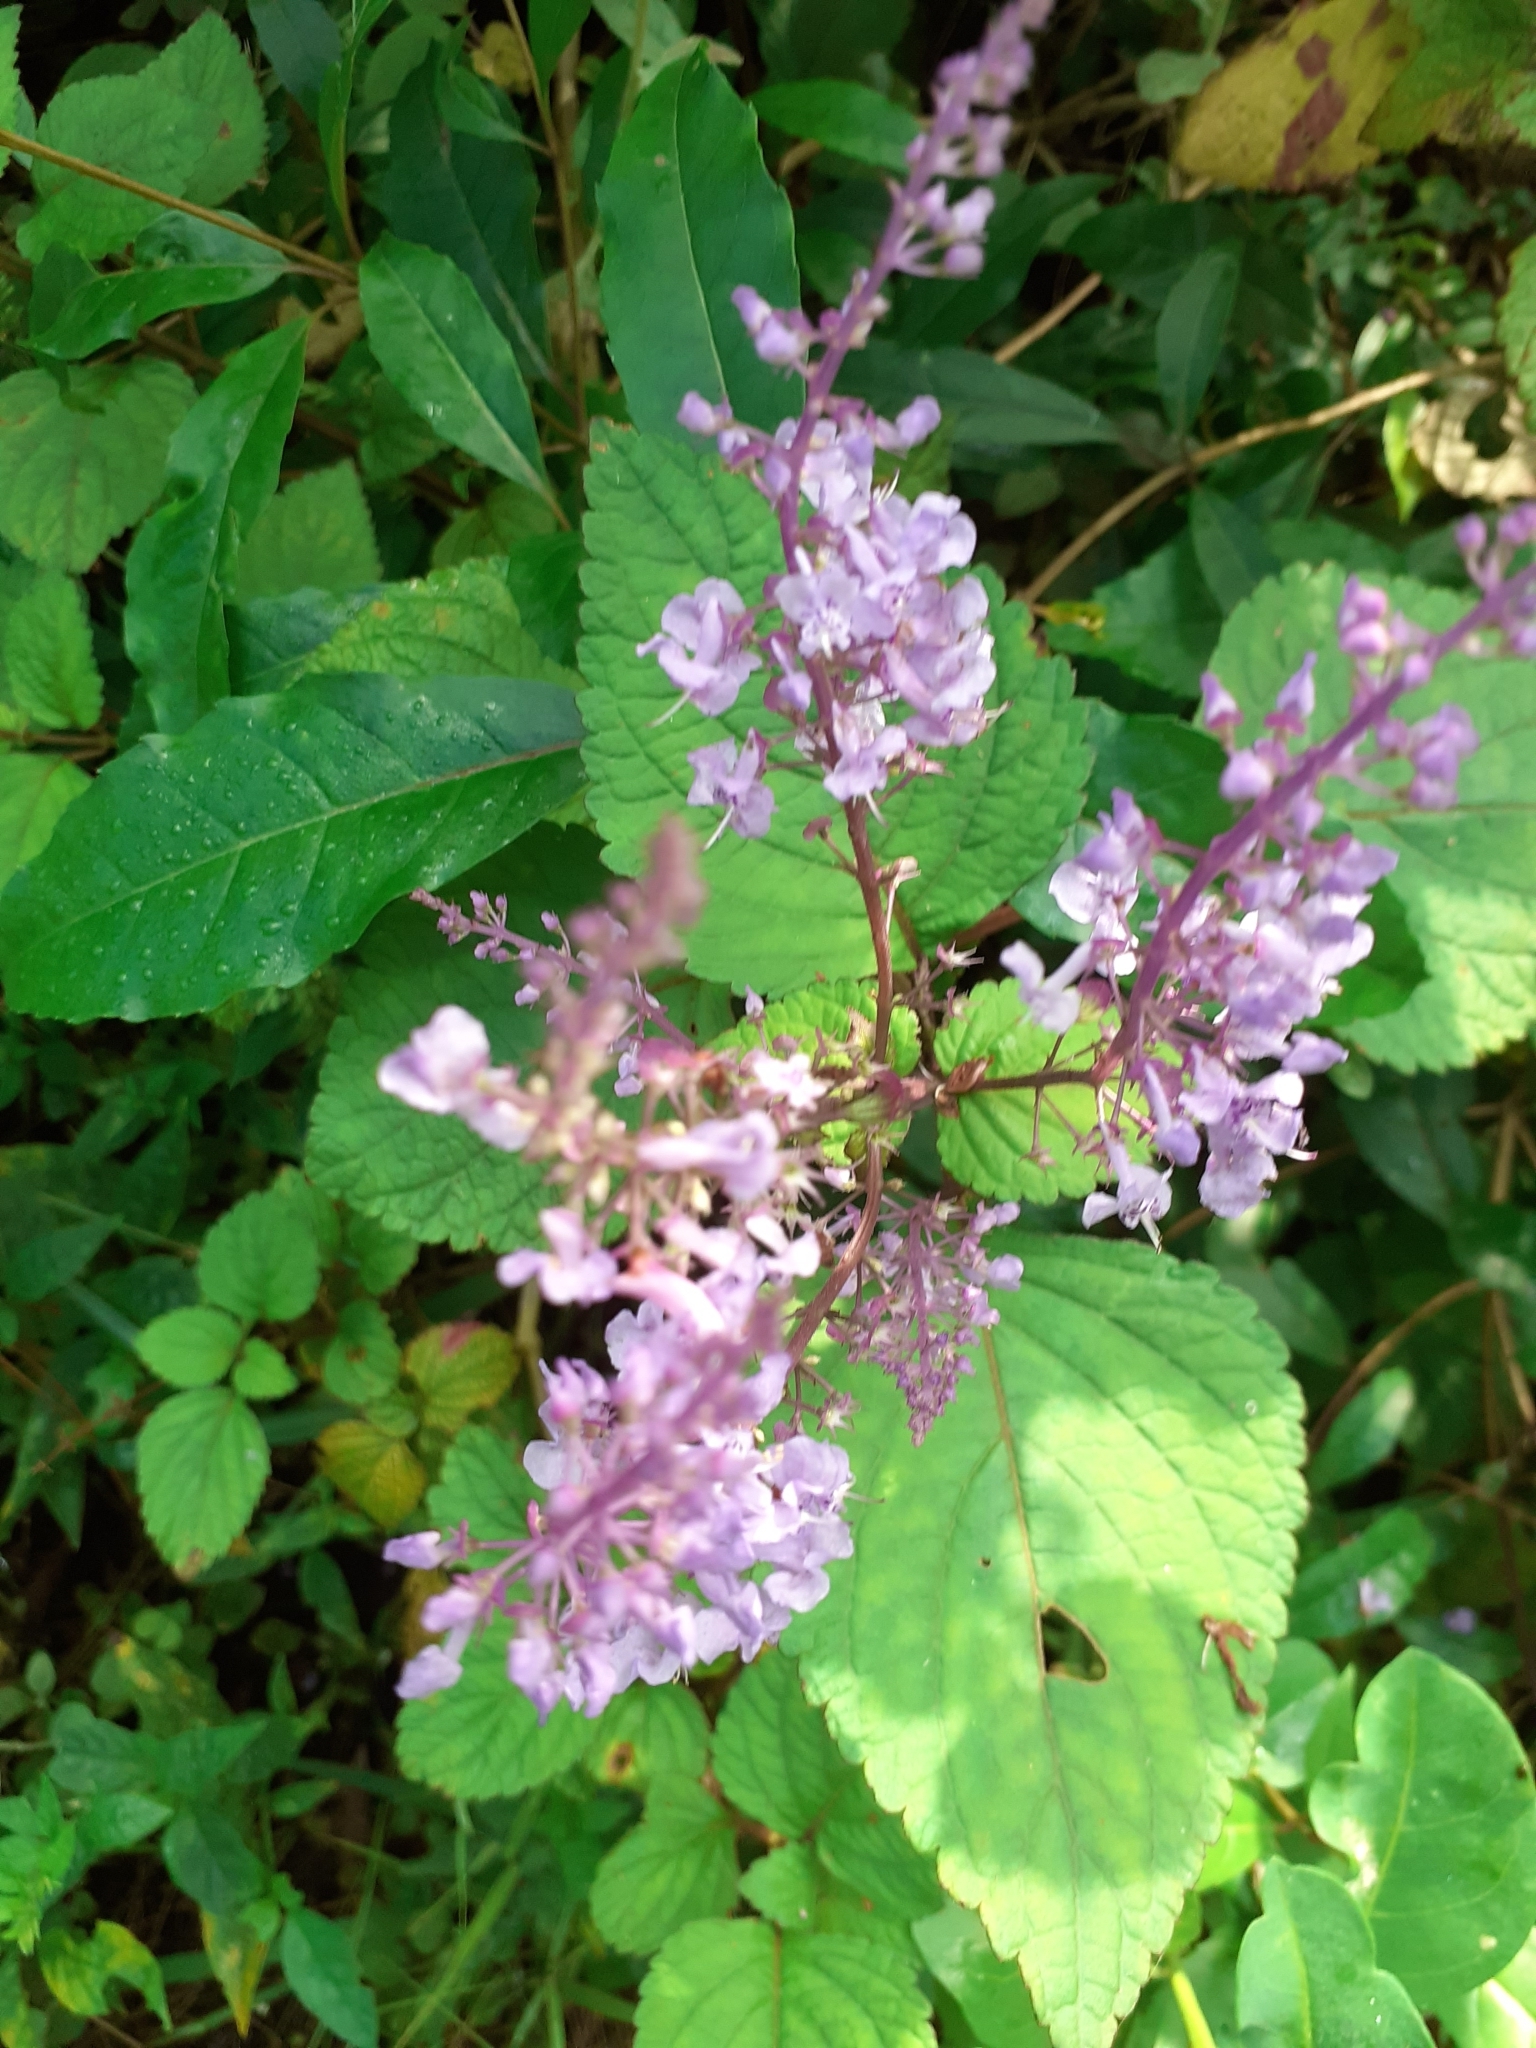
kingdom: Plantae
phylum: Tracheophyta
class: Magnoliopsida
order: Lamiales
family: Lamiaceae
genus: Plectranthus
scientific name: Plectranthus fruticosus
